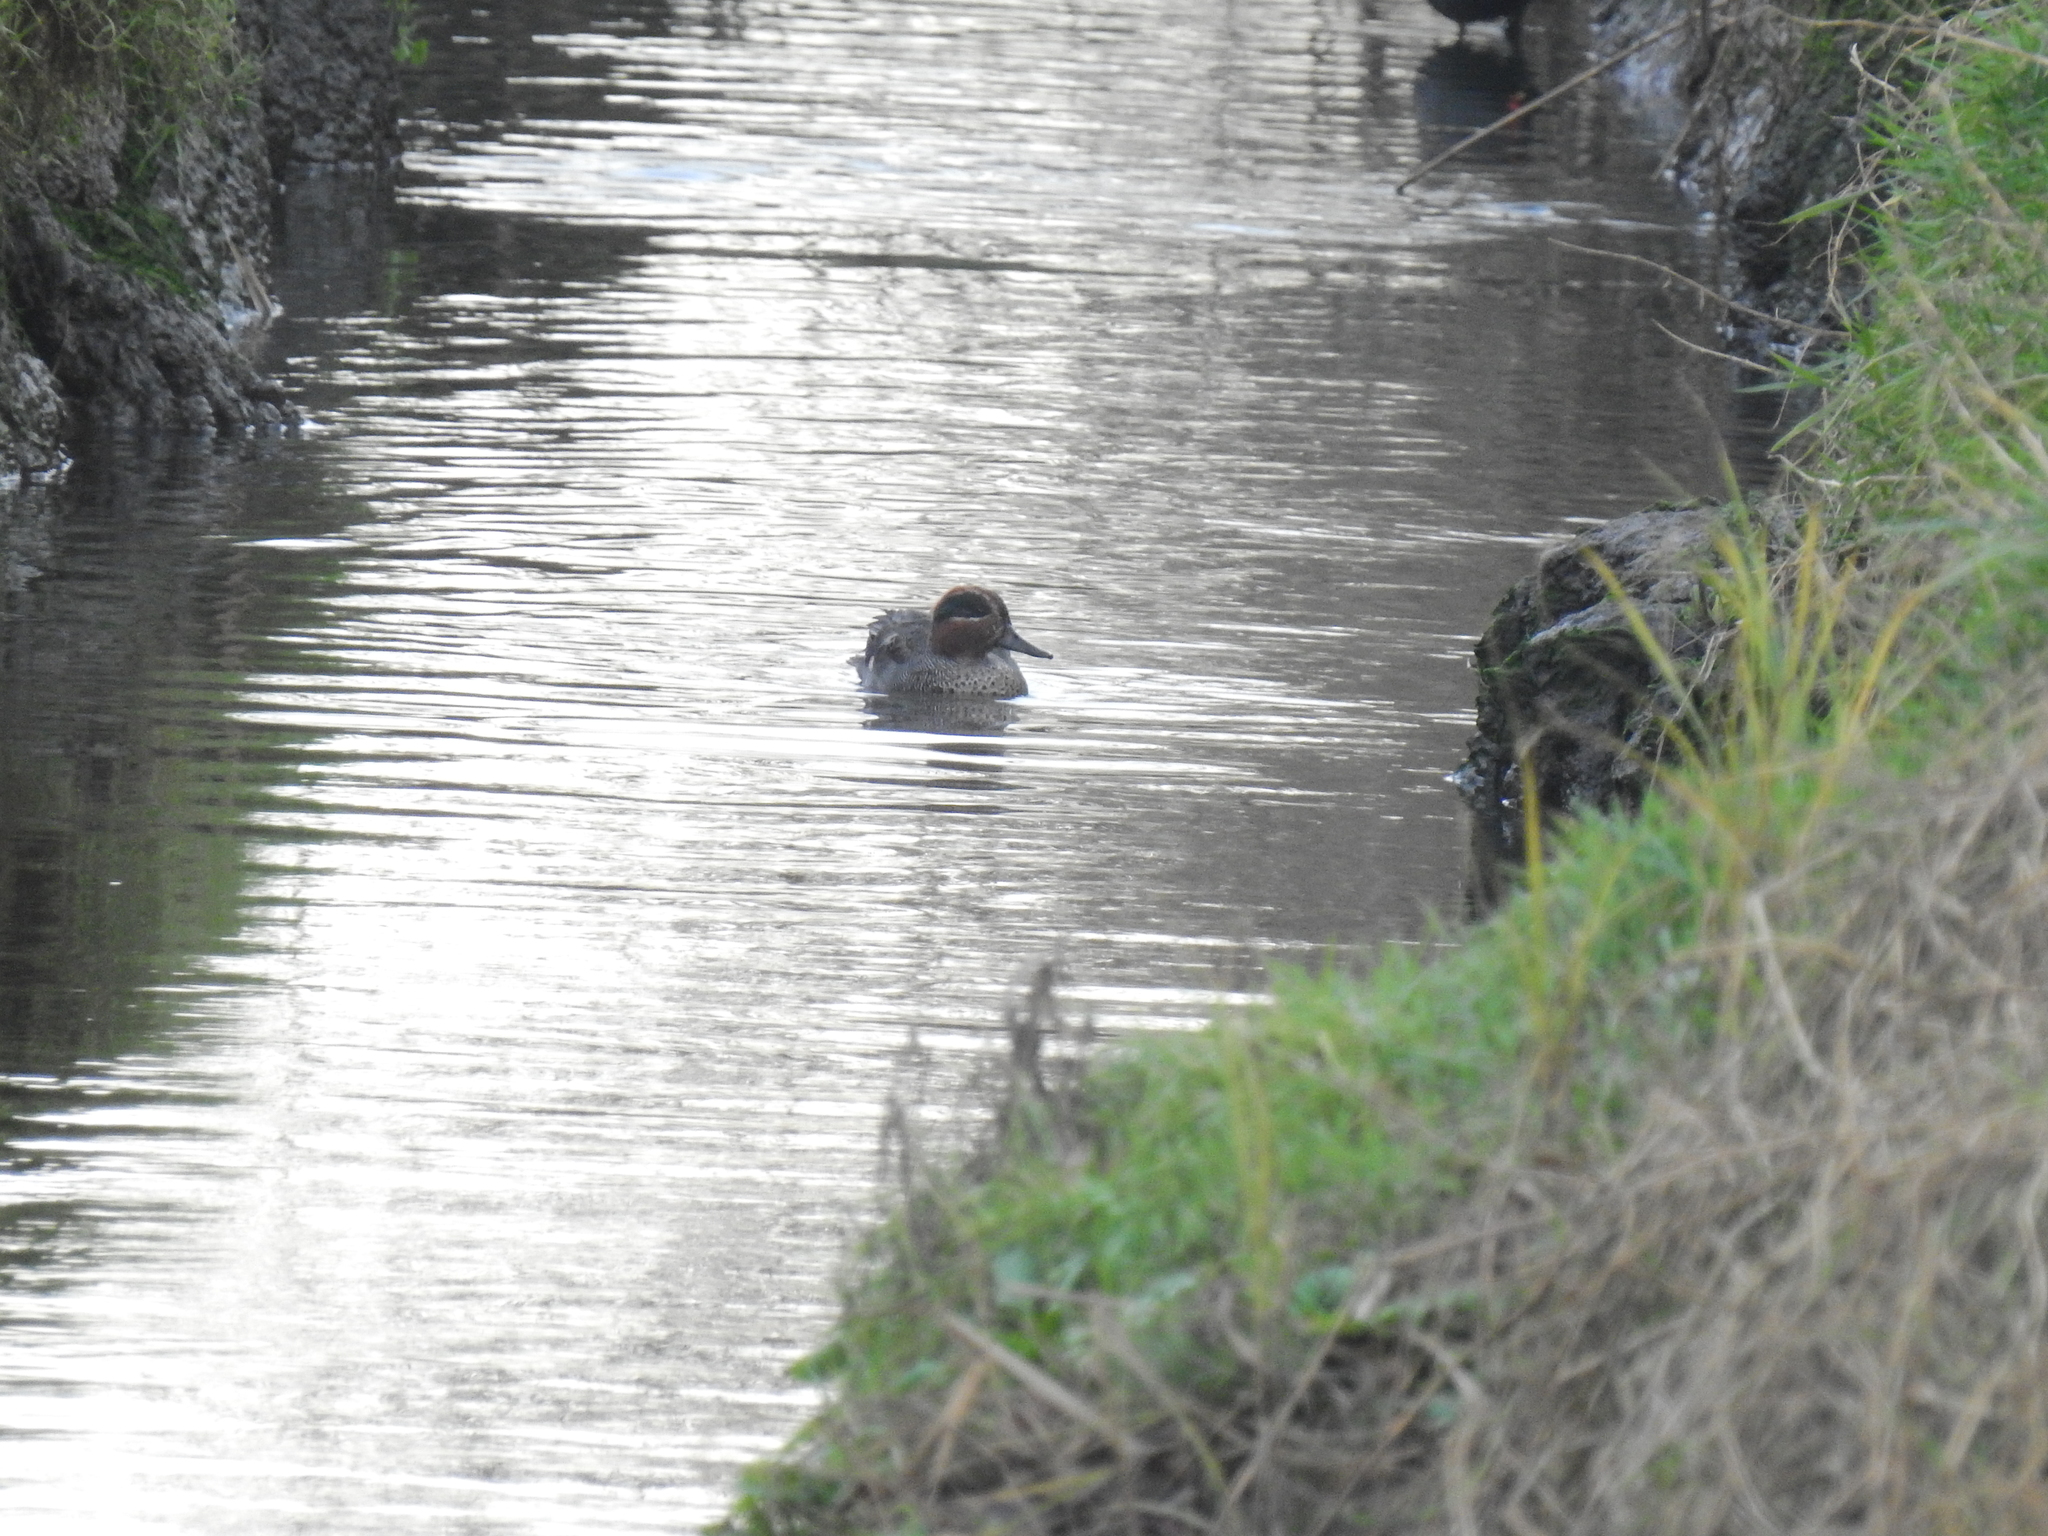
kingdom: Animalia
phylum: Chordata
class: Aves
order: Anseriformes
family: Anatidae
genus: Anas
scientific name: Anas crecca
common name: Eurasian teal
